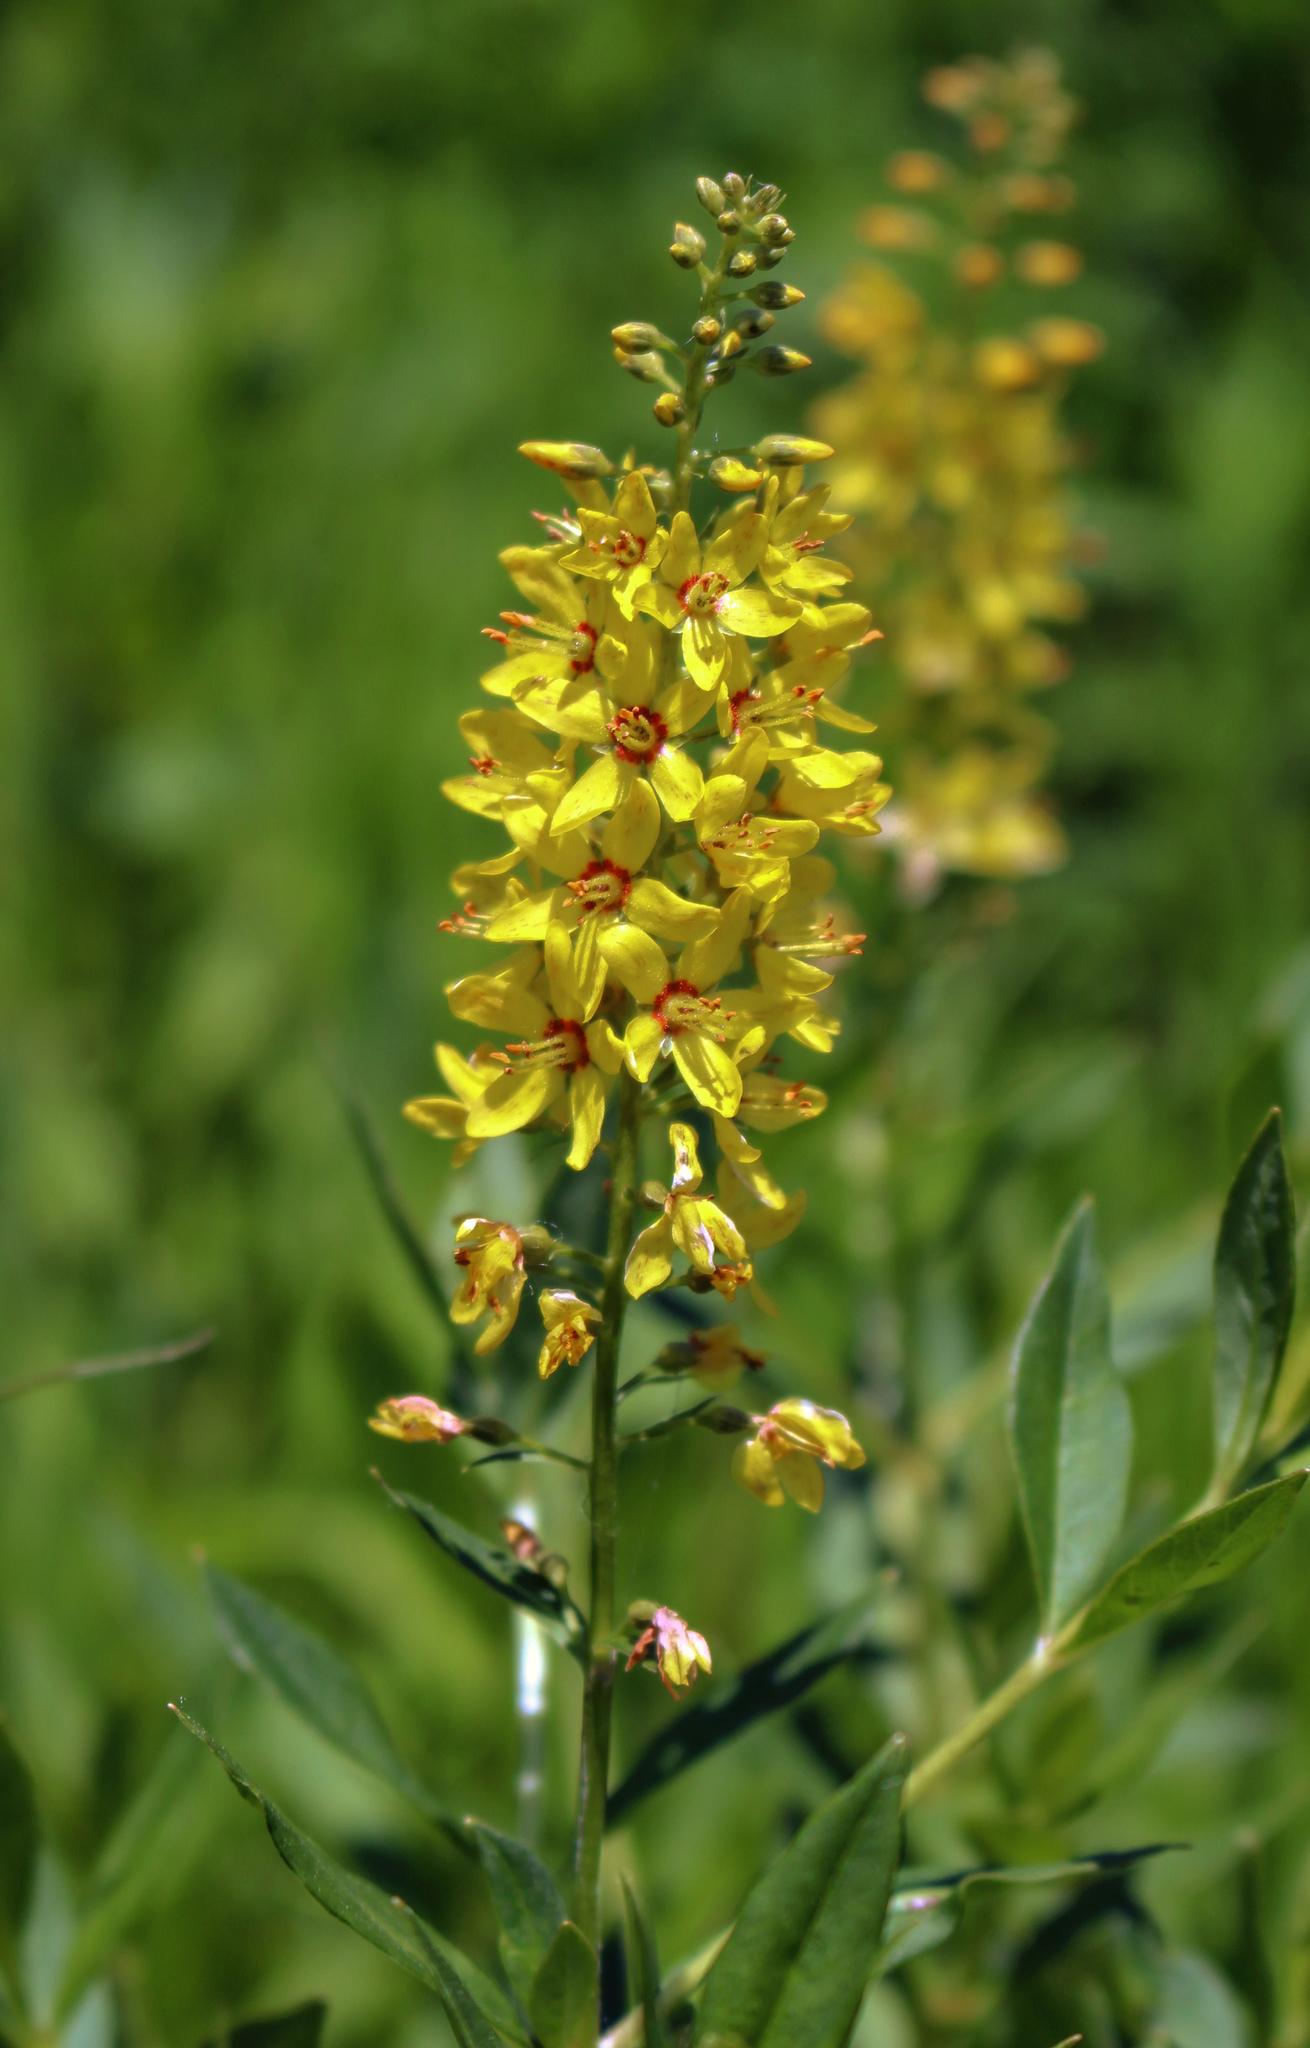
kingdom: Plantae
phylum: Tracheophyta
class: Magnoliopsida
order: Ericales
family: Primulaceae
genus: Lysimachia
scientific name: Lysimachia terrestris
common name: Lake loosestrife
